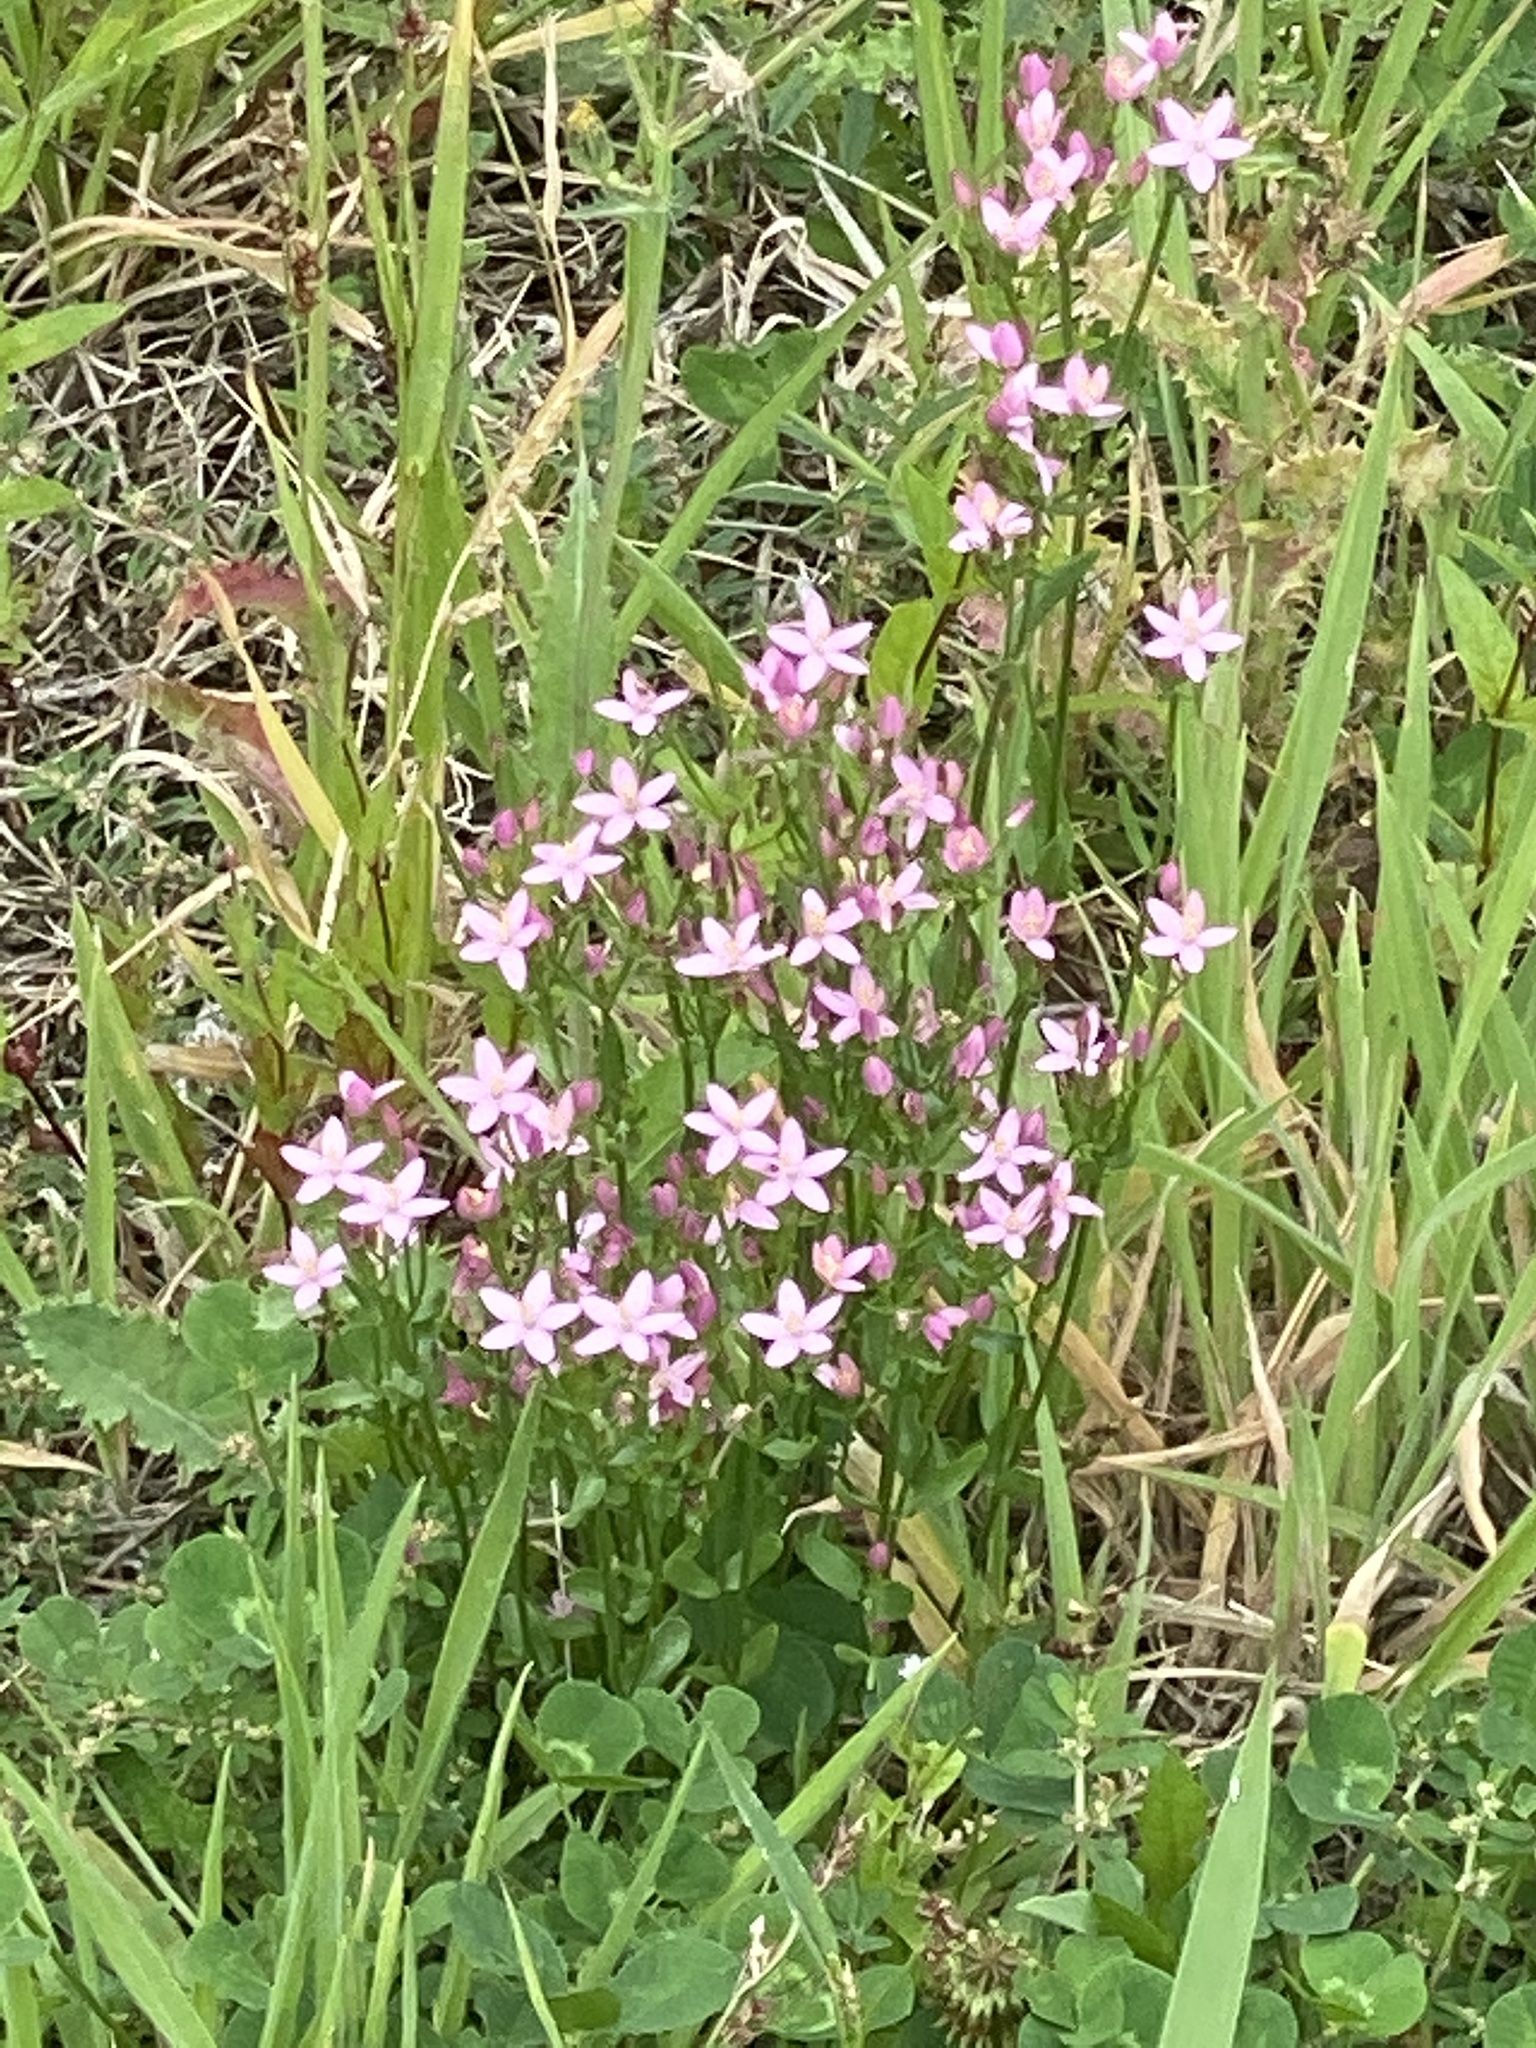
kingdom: Plantae
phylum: Tracheophyta
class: Magnoliopsida
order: Gentianales
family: Gentianaceae
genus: Centaurium
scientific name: Centaurium erythraea
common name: Common centaury
